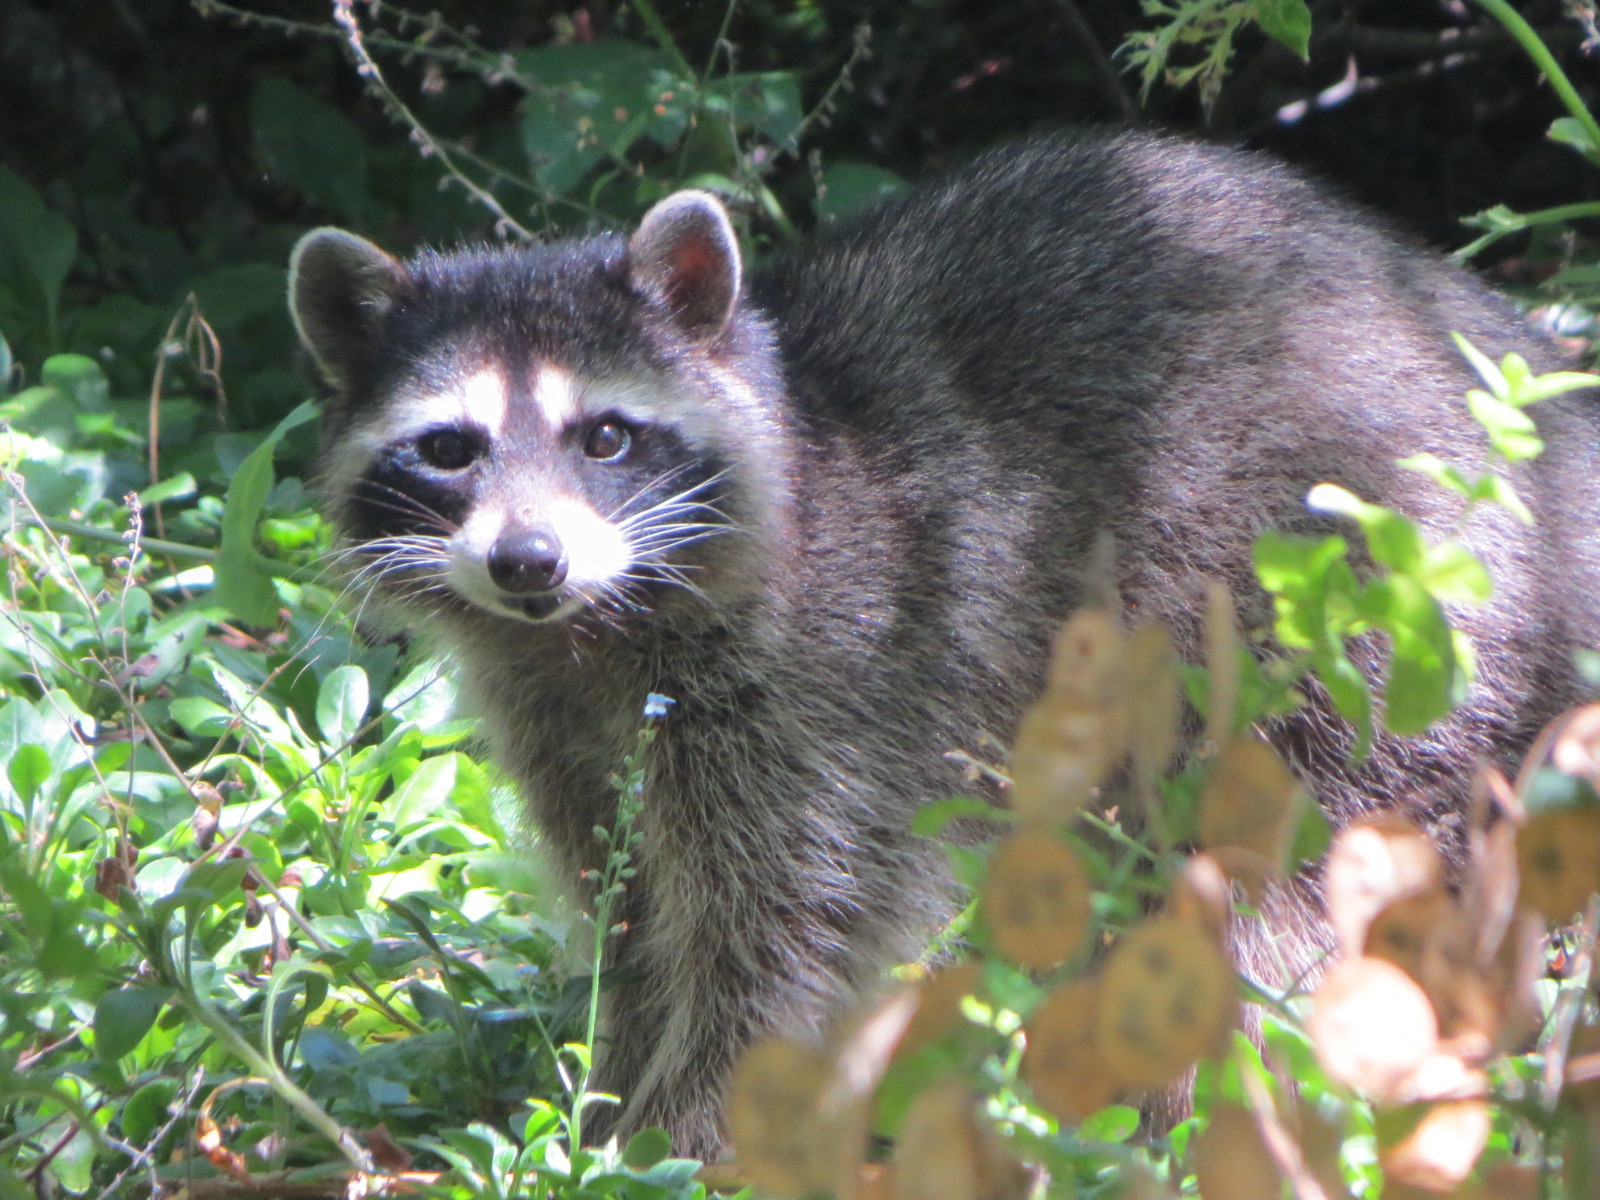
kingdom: Animalia
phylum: Chordata
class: Mammalia
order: Carnivora
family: Procyonidae
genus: Procyon
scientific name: Procyon lotor
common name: Raccoon
